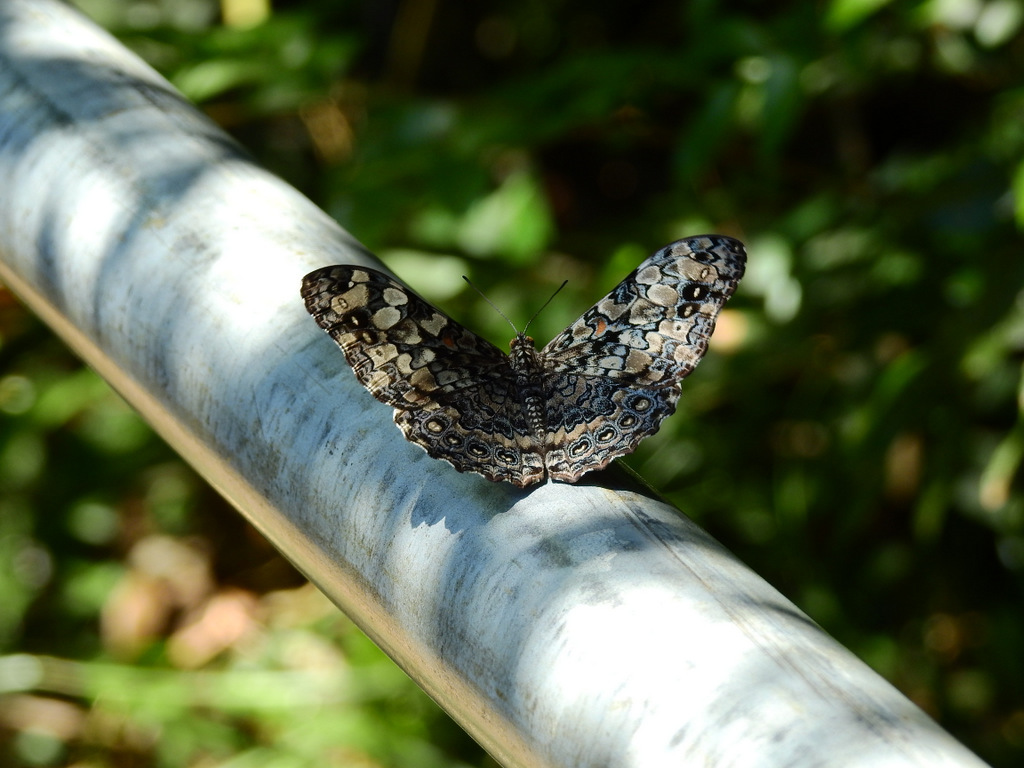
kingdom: Animalia
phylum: Arthropoda
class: Insecta
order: Lepidoptera
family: Nymphalidae
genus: Hamadryas
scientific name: Hamadryas epinome
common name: Epinome cracker
